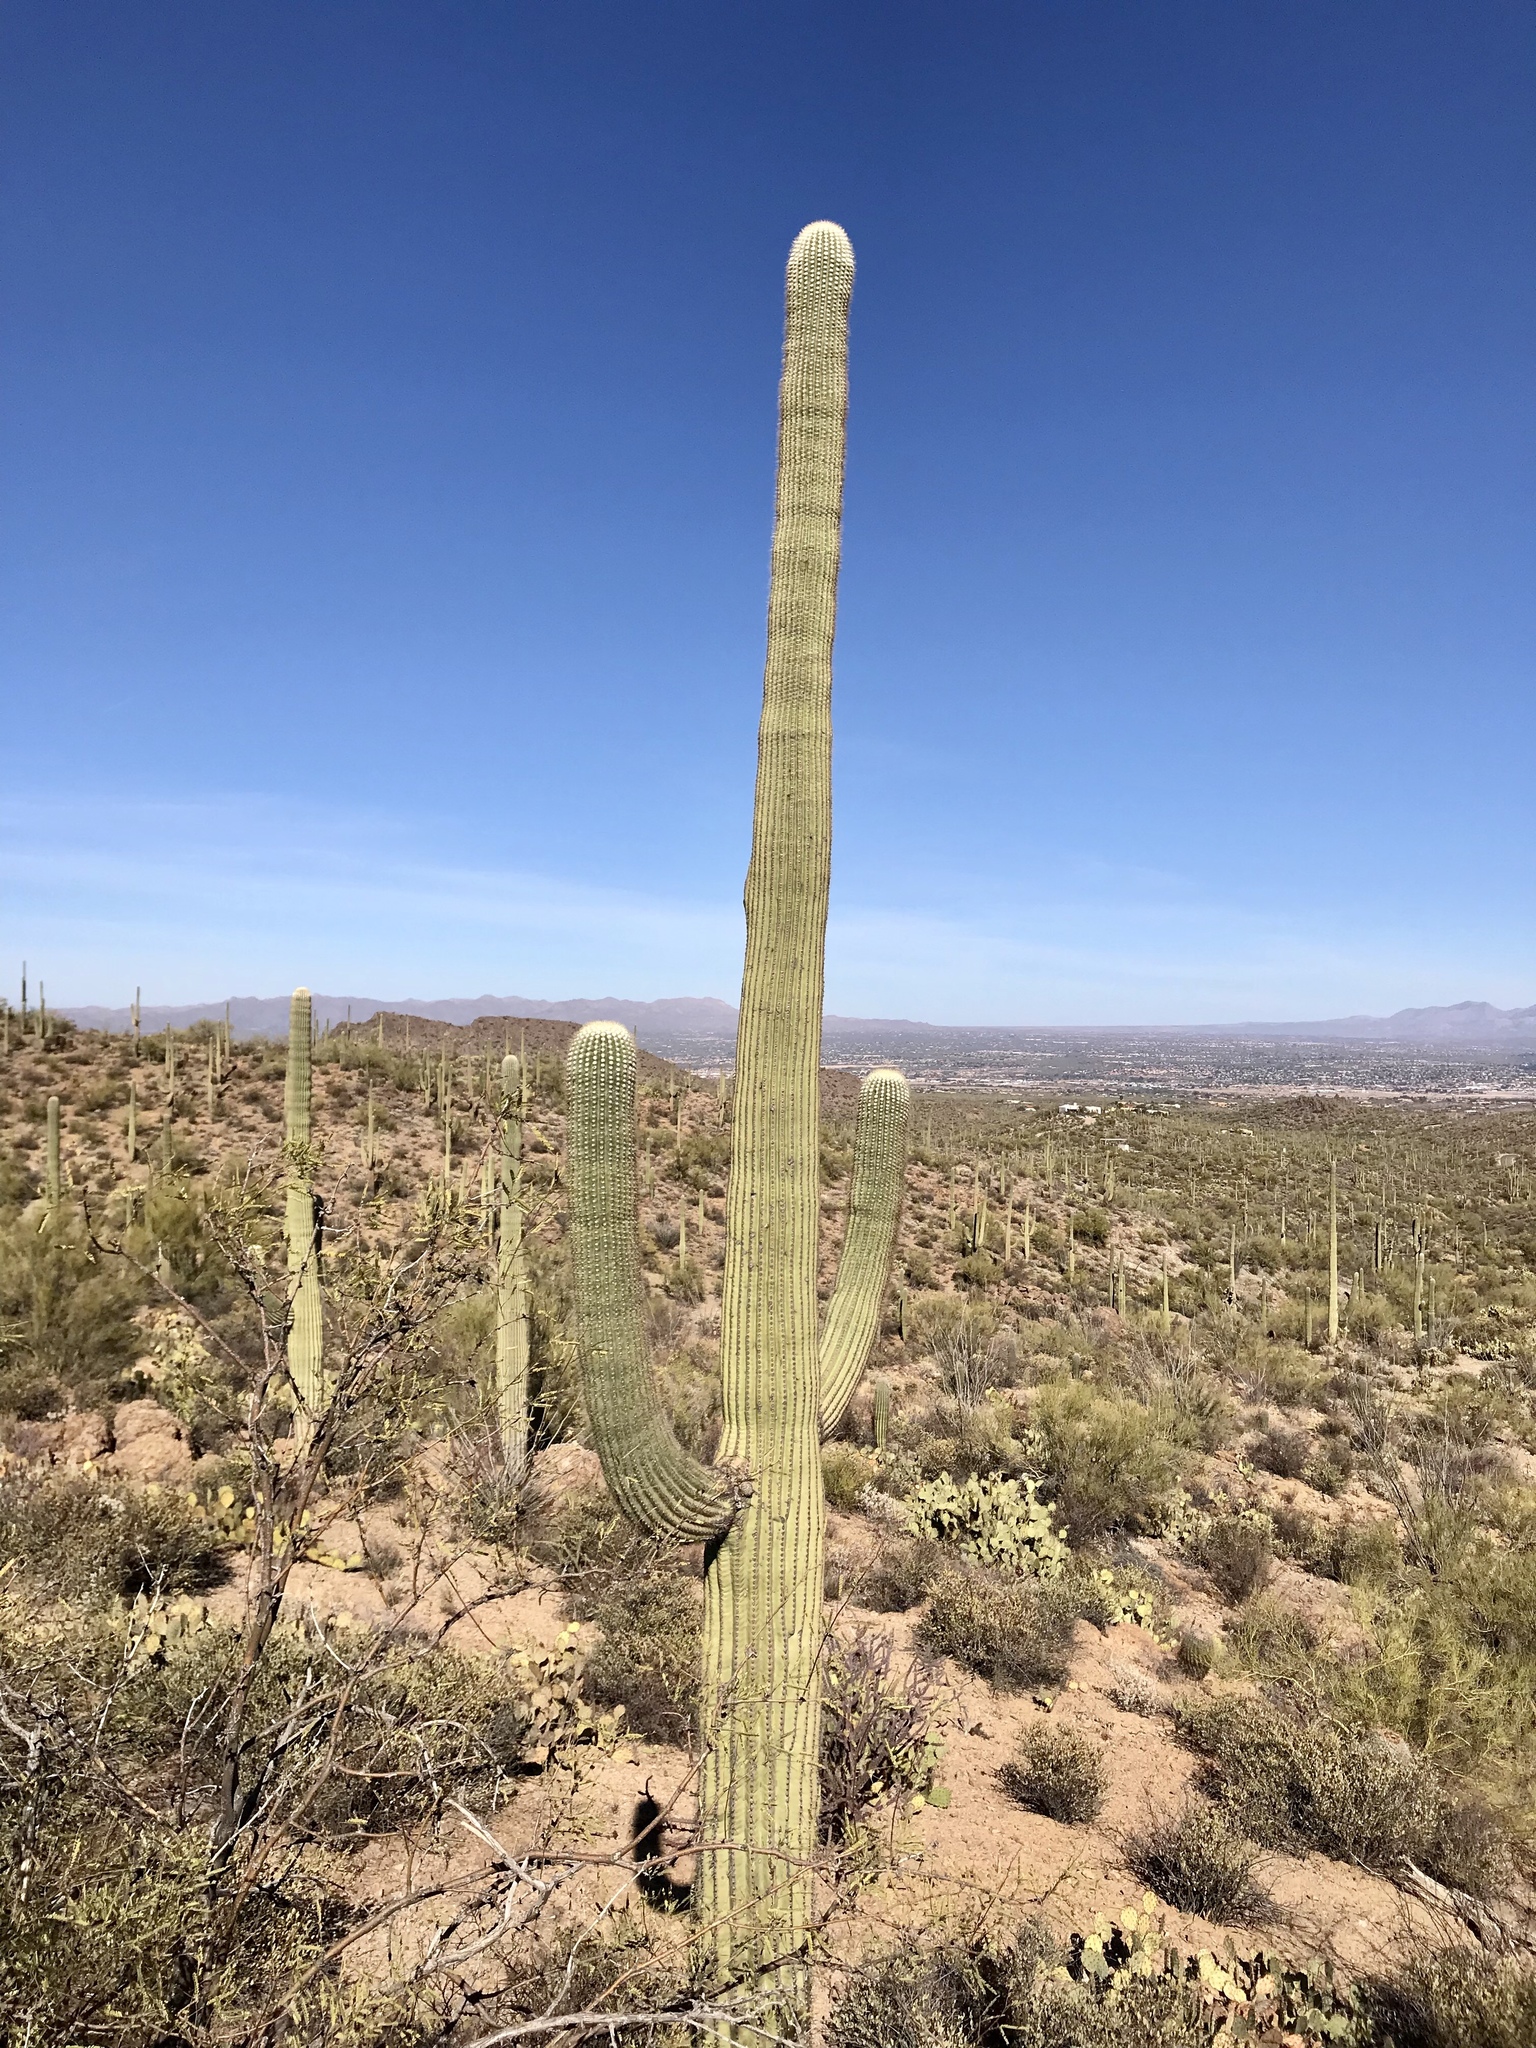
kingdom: Plantae
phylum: Tracheophyta
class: Magnoliopsida
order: Caryophyllales
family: Cactaceae
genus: Carnegiea
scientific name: Carnegiea gigantea
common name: Saguaro
